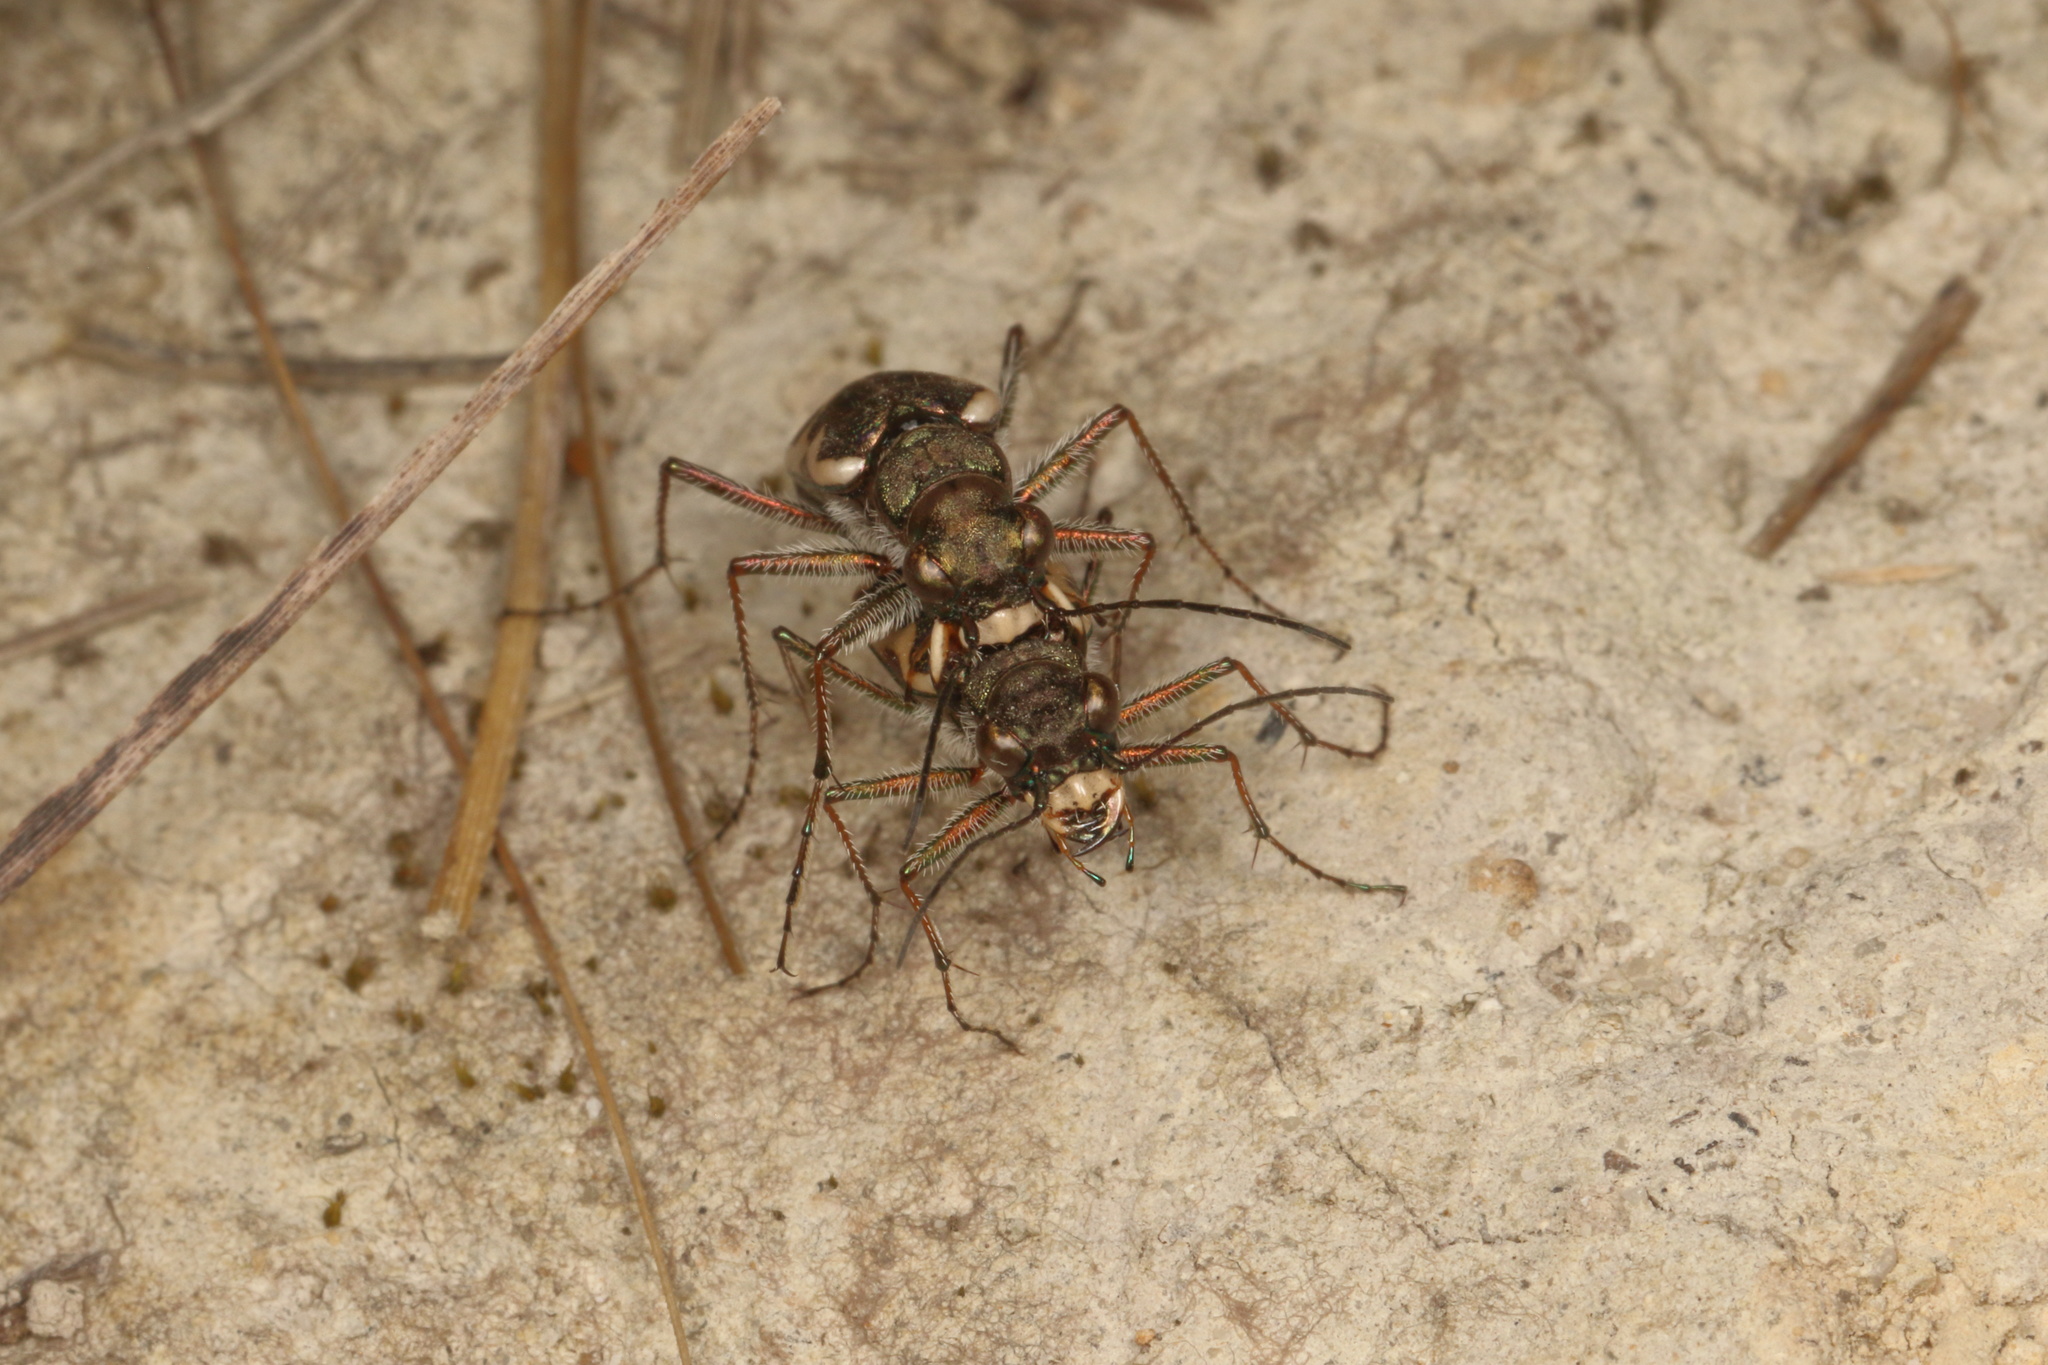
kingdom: Animalia
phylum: Arthropoda
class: Insecta
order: Coleoptera
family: Carabidae
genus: Neocicindela
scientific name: Neocicindela tuberculata
